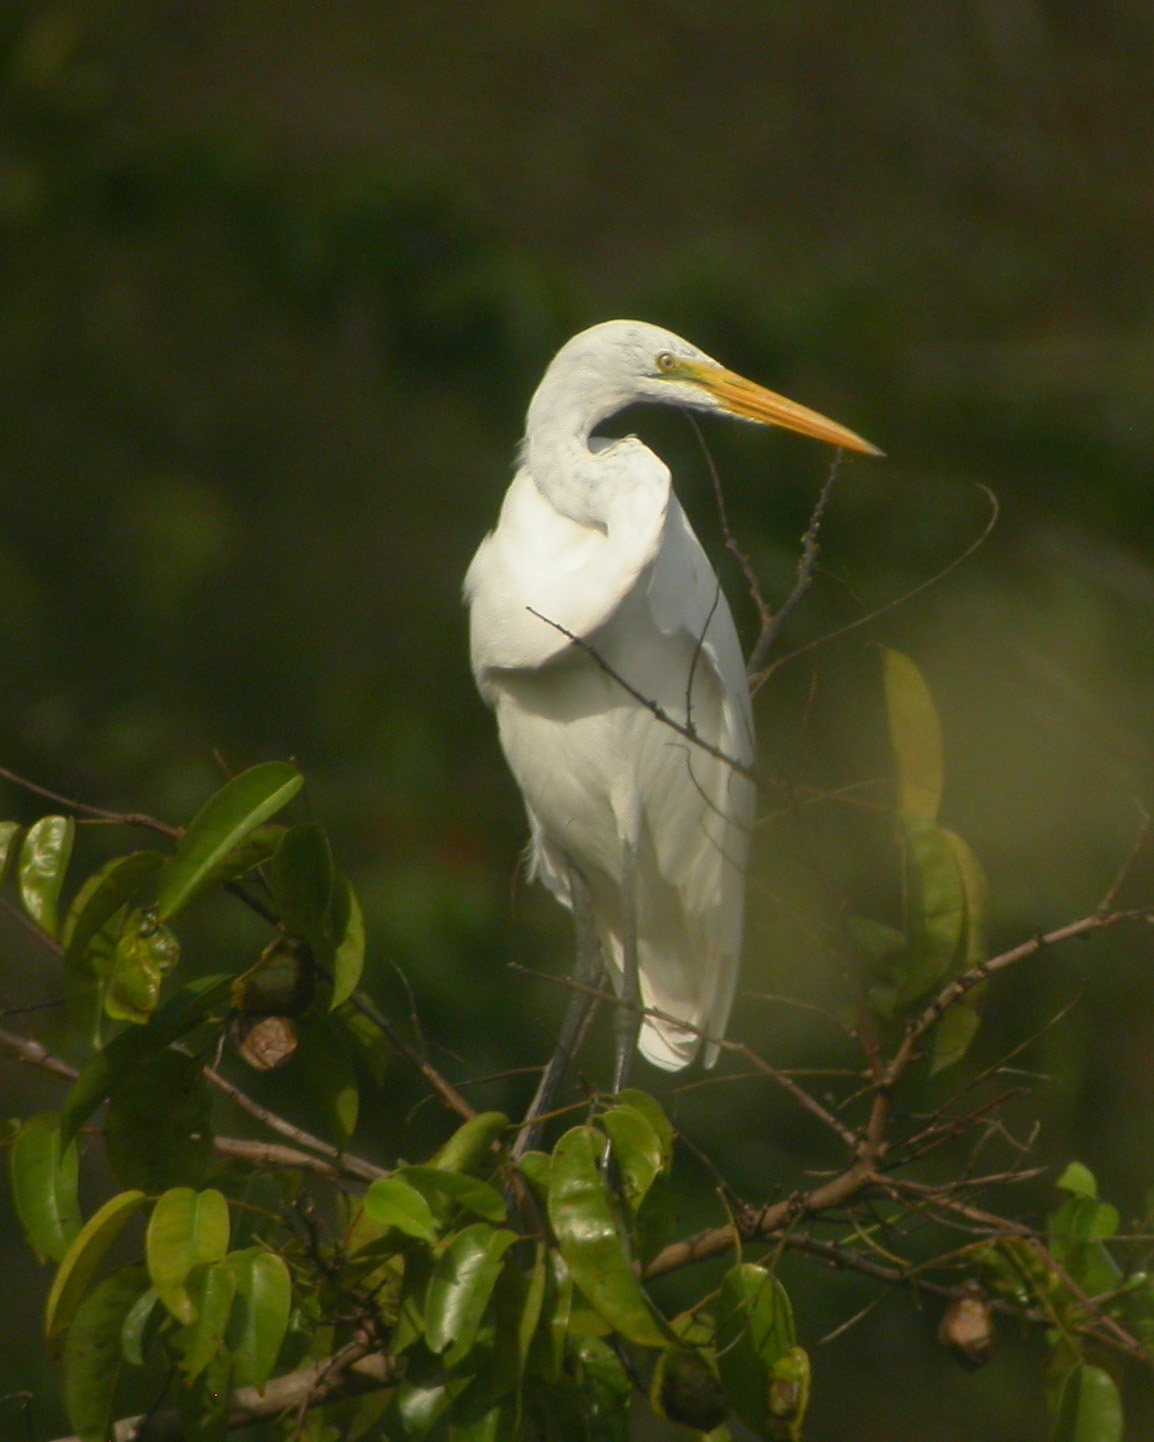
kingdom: Animalia
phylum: Chordata
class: Aves
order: Pelecaniformes
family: Ardeidae
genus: Ardea
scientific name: Ardea alba
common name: Great egret
